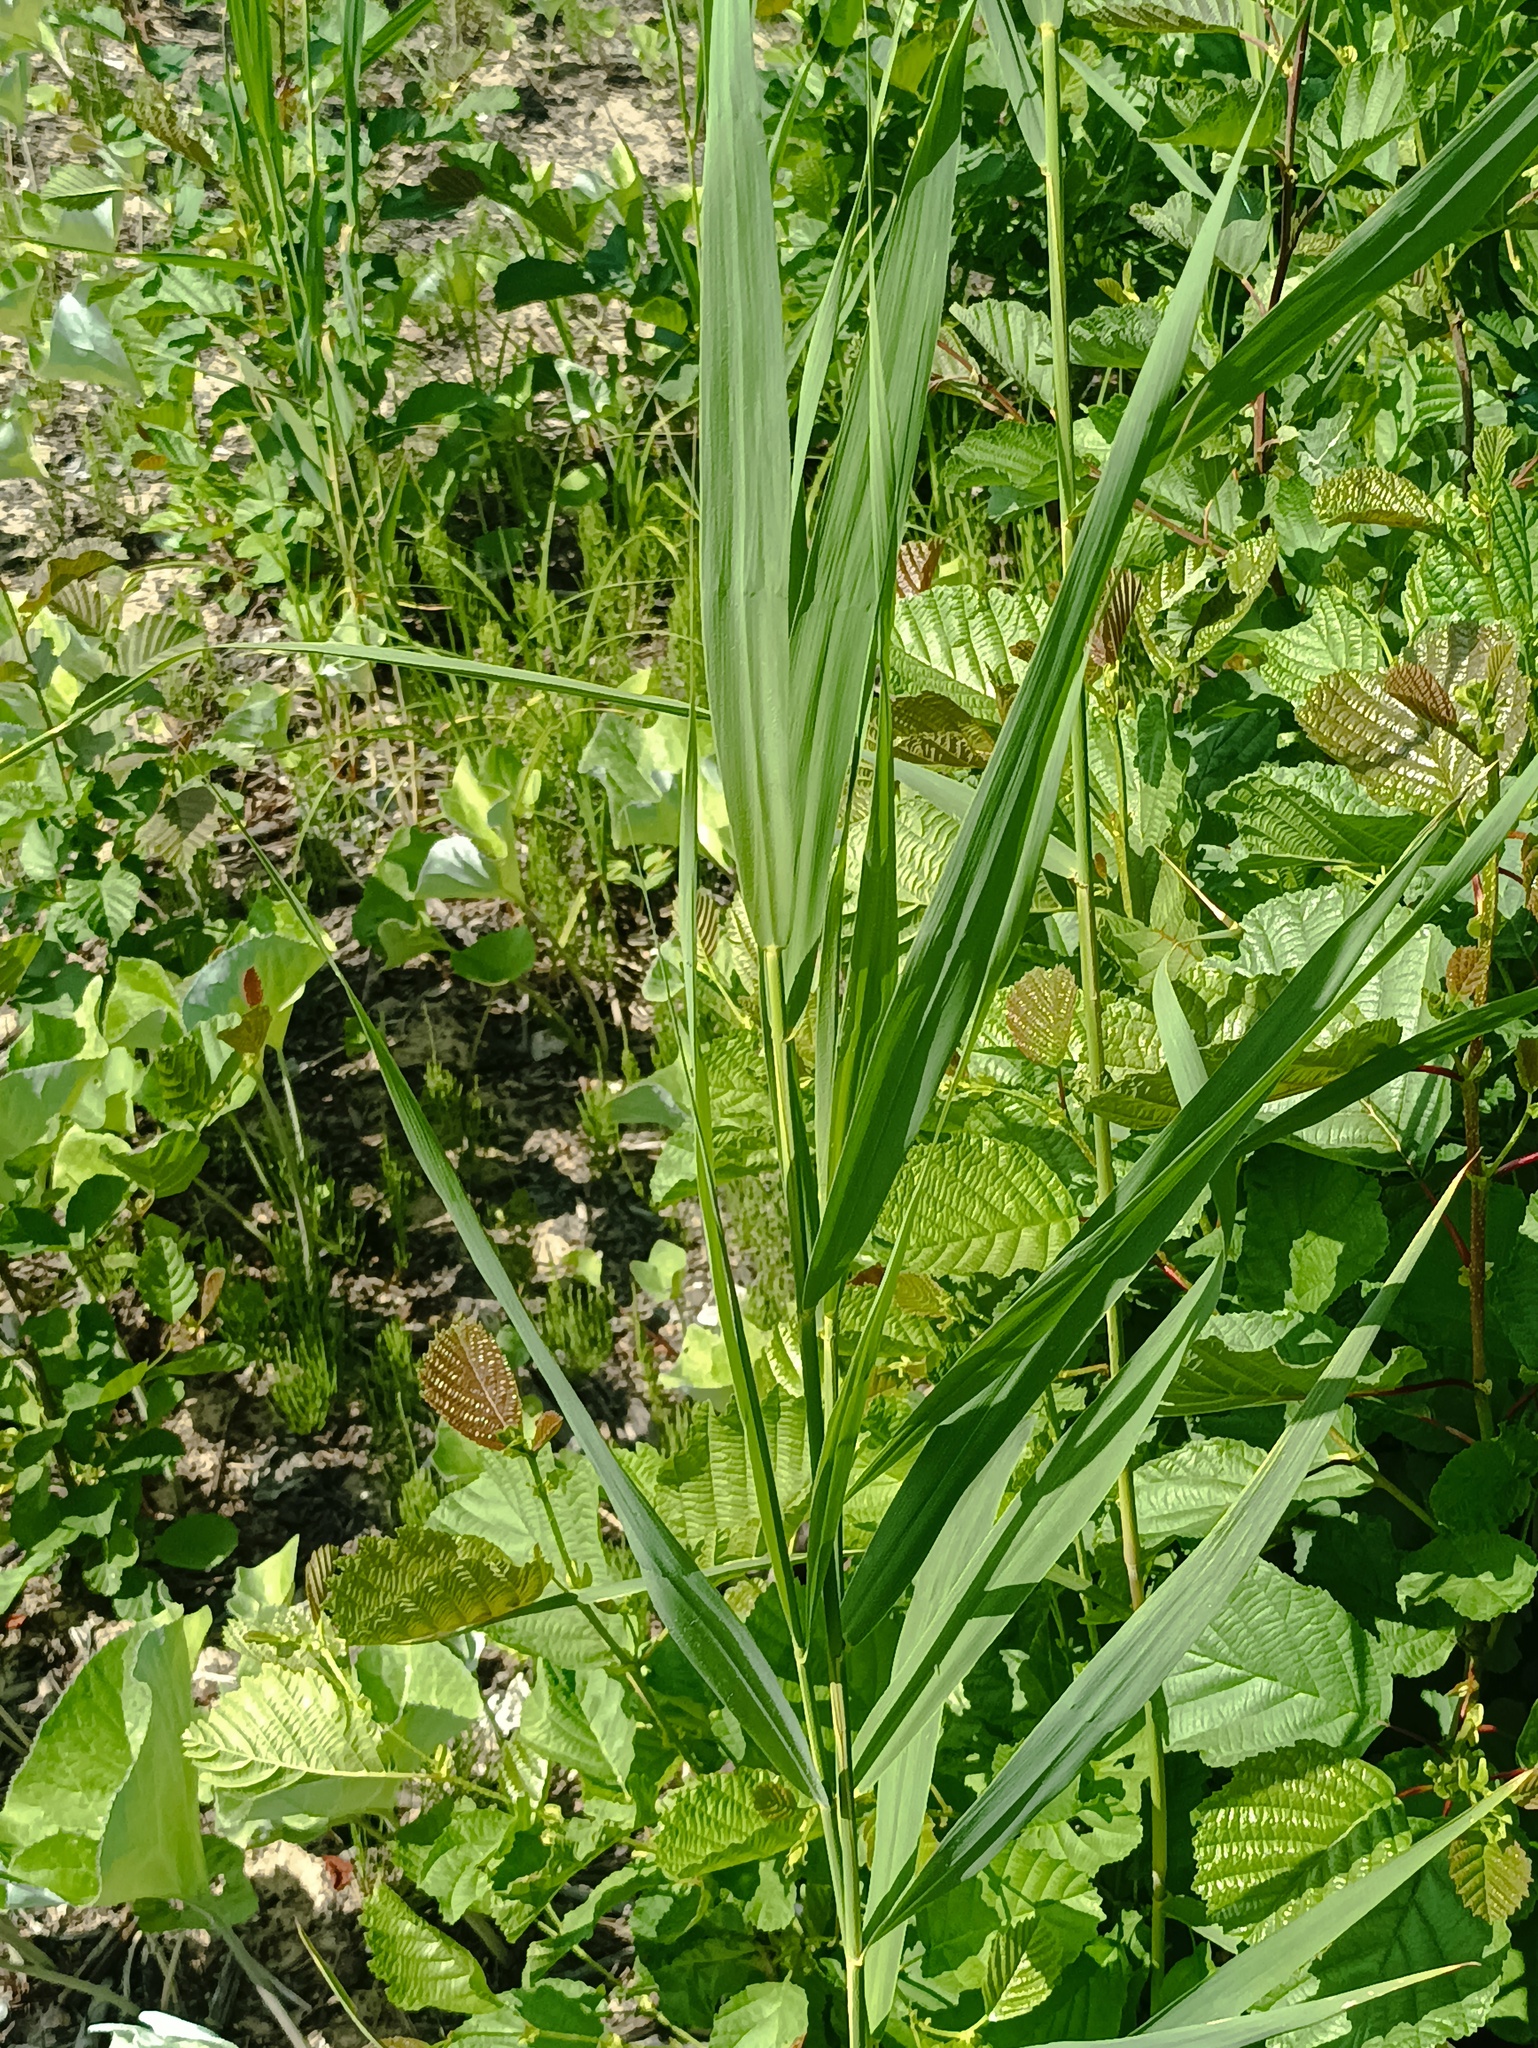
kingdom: Plantae
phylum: Tracheophyta
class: Liliopsida
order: Poales
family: Poaceae
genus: Phragmites
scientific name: Phragmites australis
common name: Common reed
